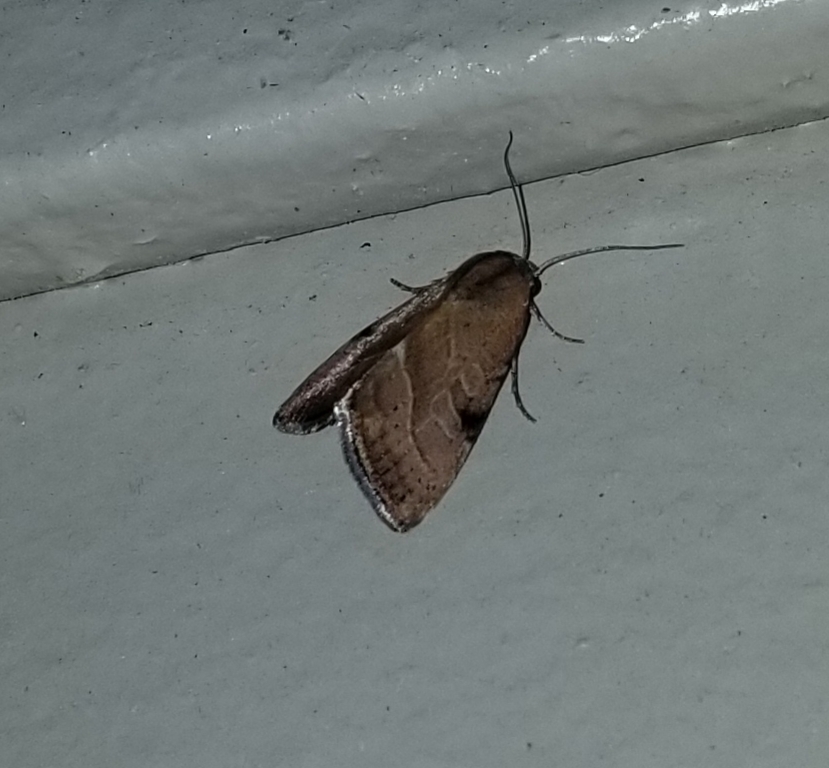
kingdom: Animalia
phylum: Arthropoda
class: Insecta
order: Lepidoptera
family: Noctuidae
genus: Galgula
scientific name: Galgula partita
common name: Wedgeling
